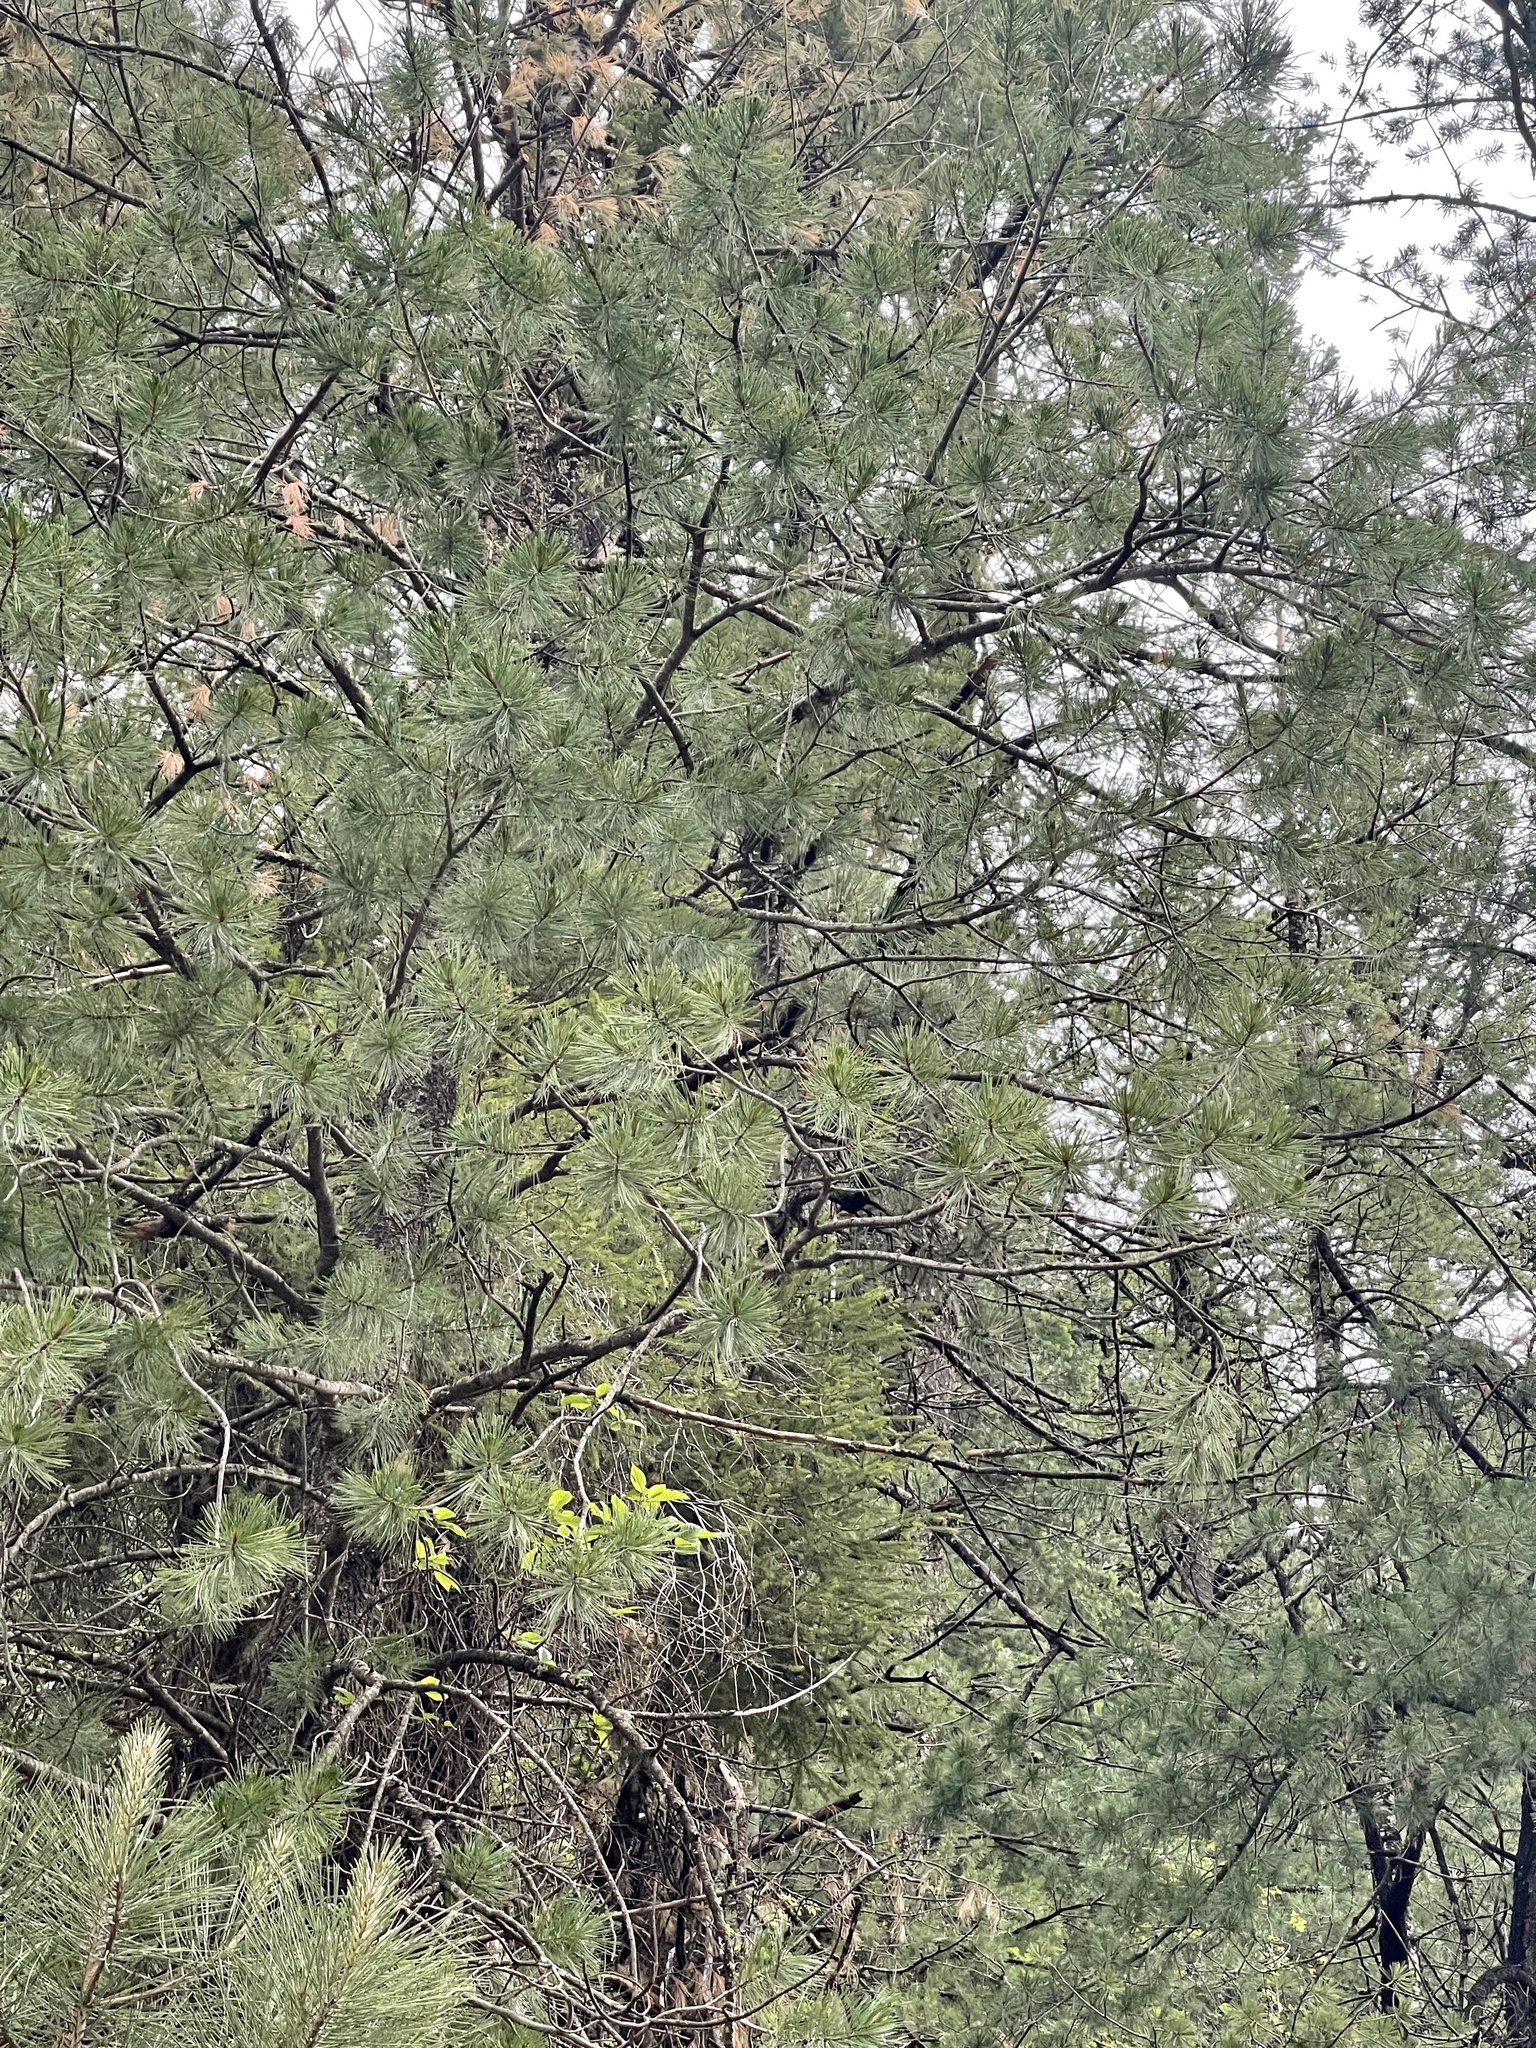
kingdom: Plantae
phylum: Tracheophyta
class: Pinopsida
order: Pinales
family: Pinaceae
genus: Pinus
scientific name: Pinus strobiformis
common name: Southwestern white pine
